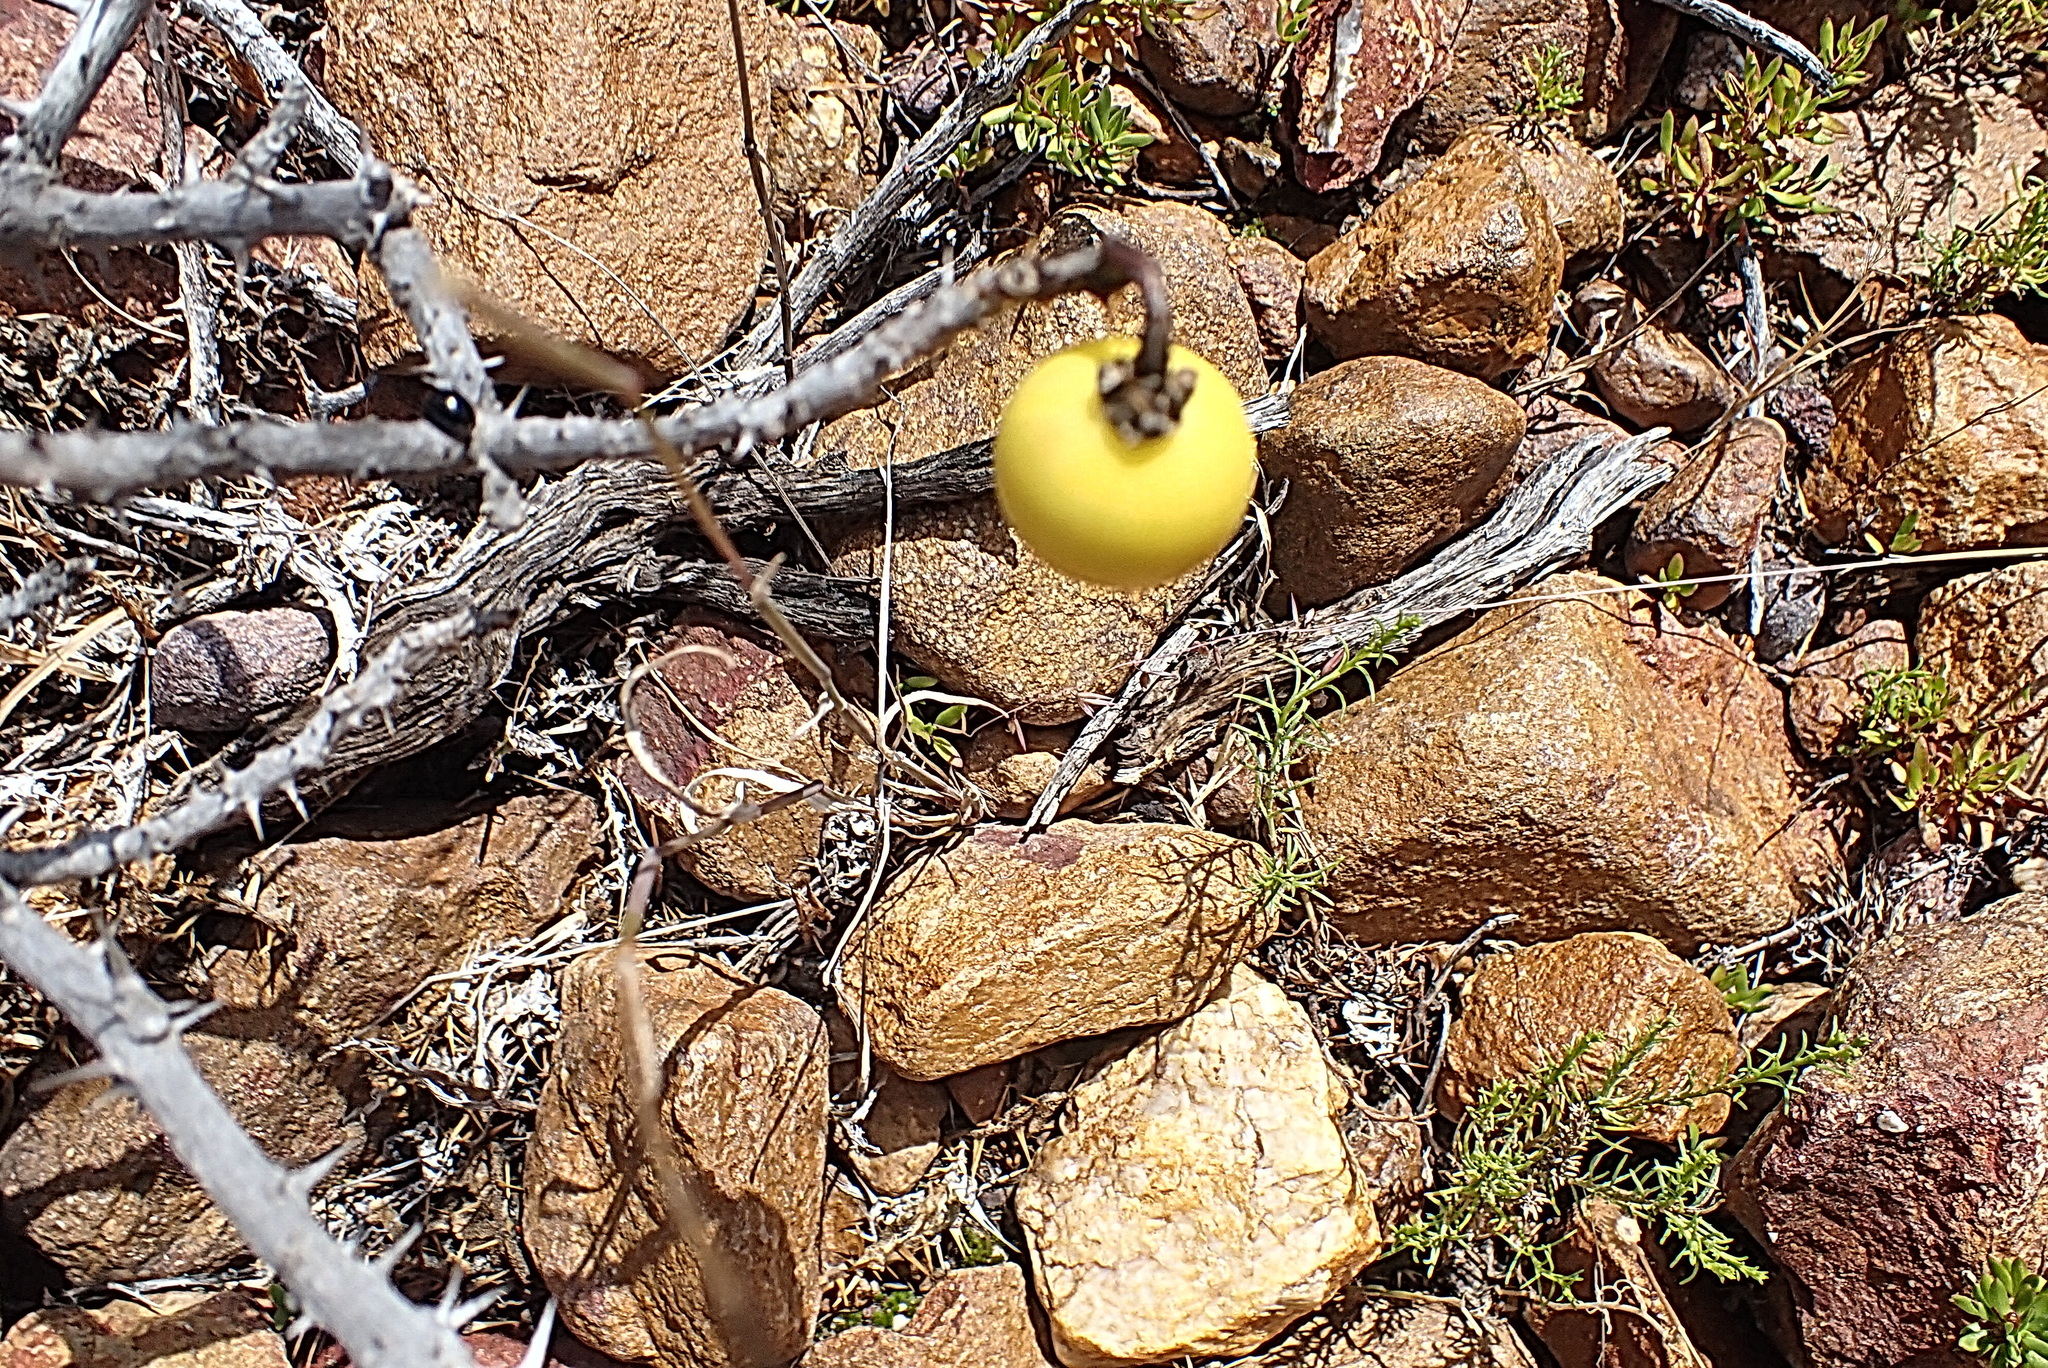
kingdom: Plantae
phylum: Tracheophyta
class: Magnoliopsida
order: Solanales
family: Solanaceae
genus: Solanum
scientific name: Solanum linnaeanum
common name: Nightshade
